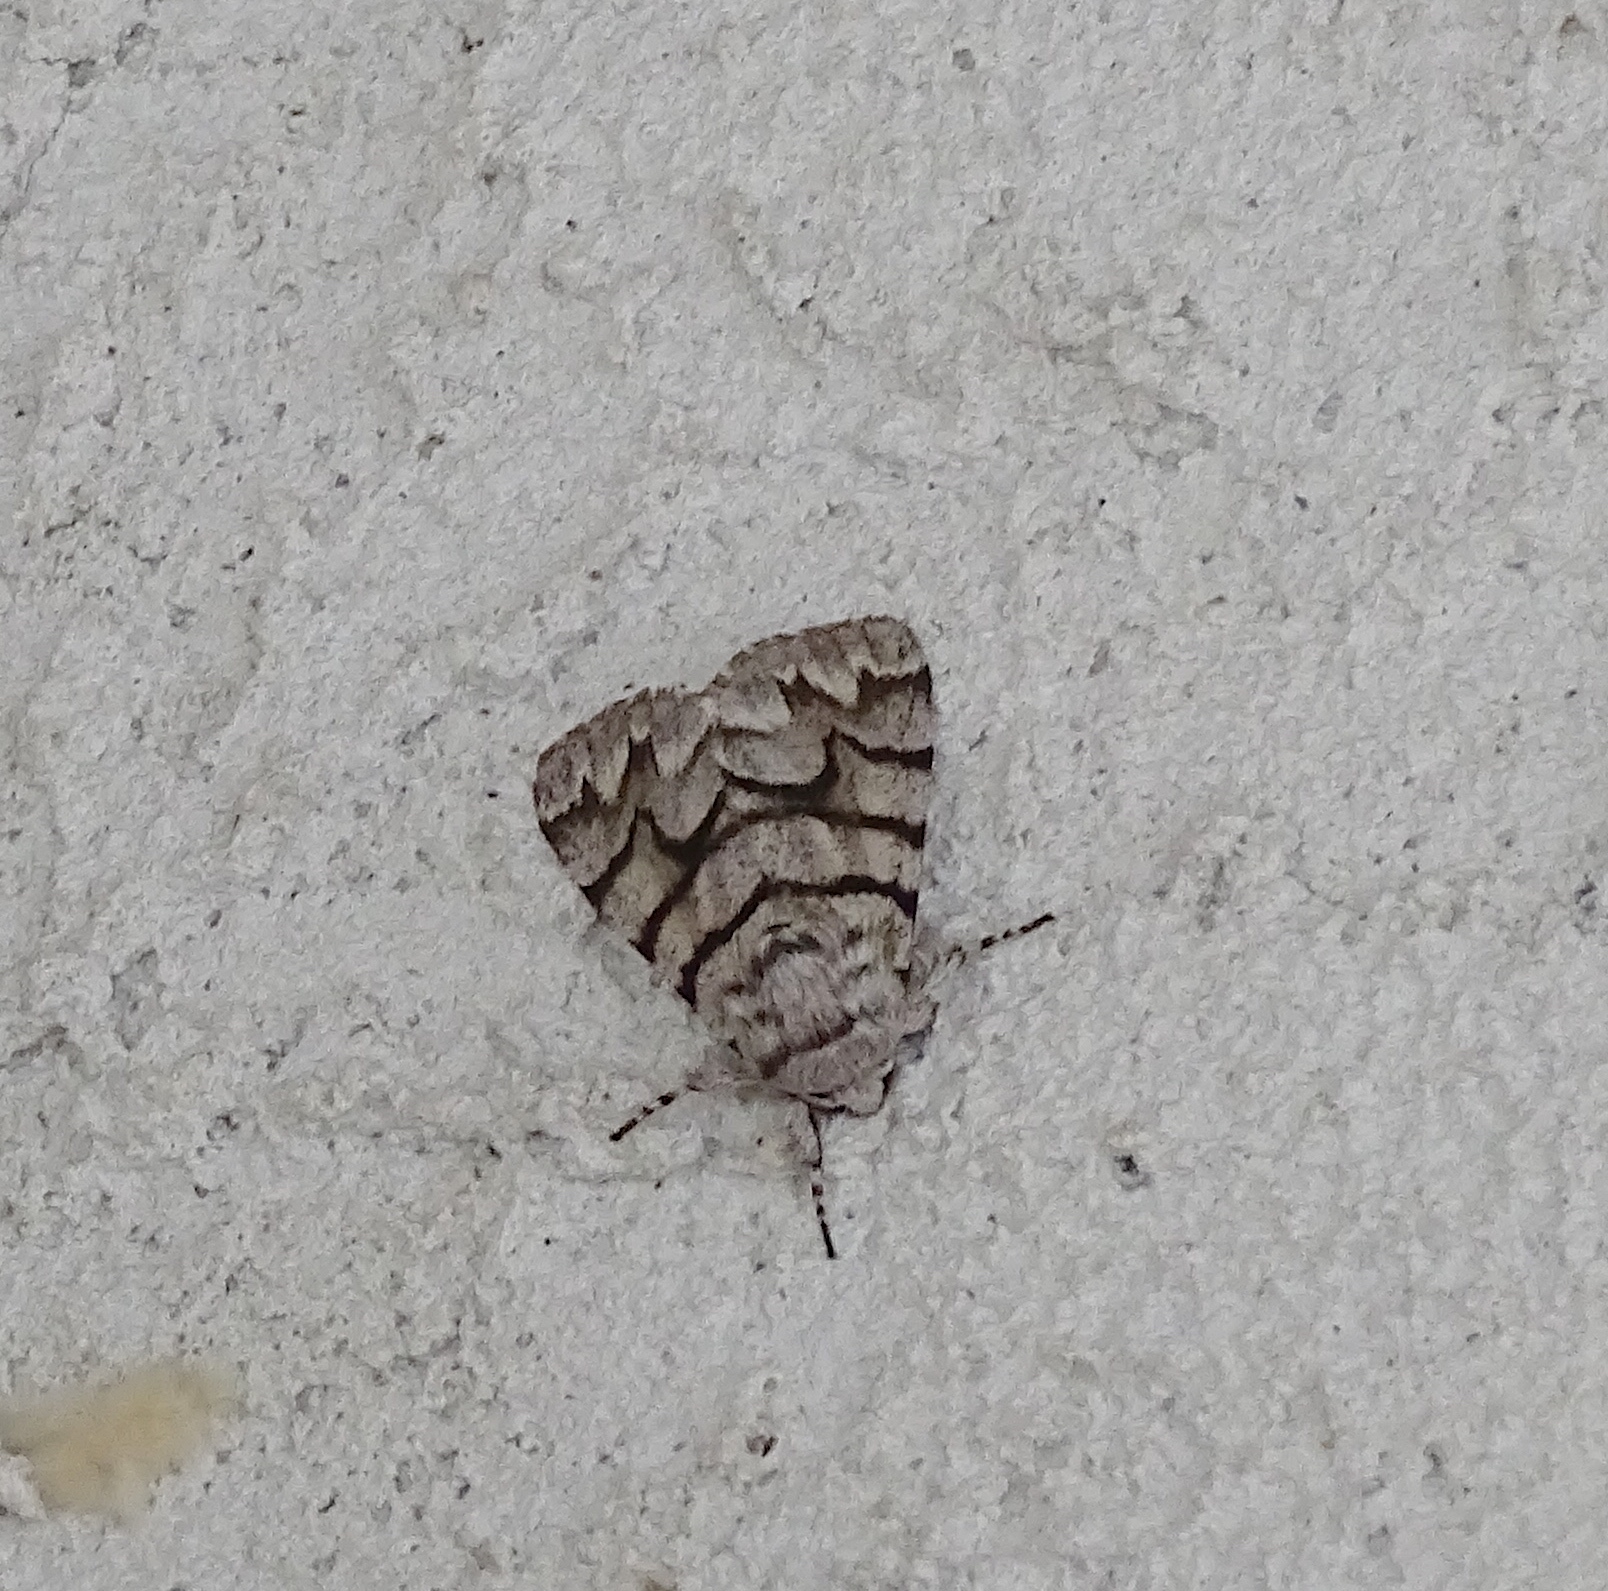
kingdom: Animalia
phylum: Arthropoda
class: Insecta
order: Lepidoptera
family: Noctuidae
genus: Panthea
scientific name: Panthea furcilla
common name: Eastern panthea moth
